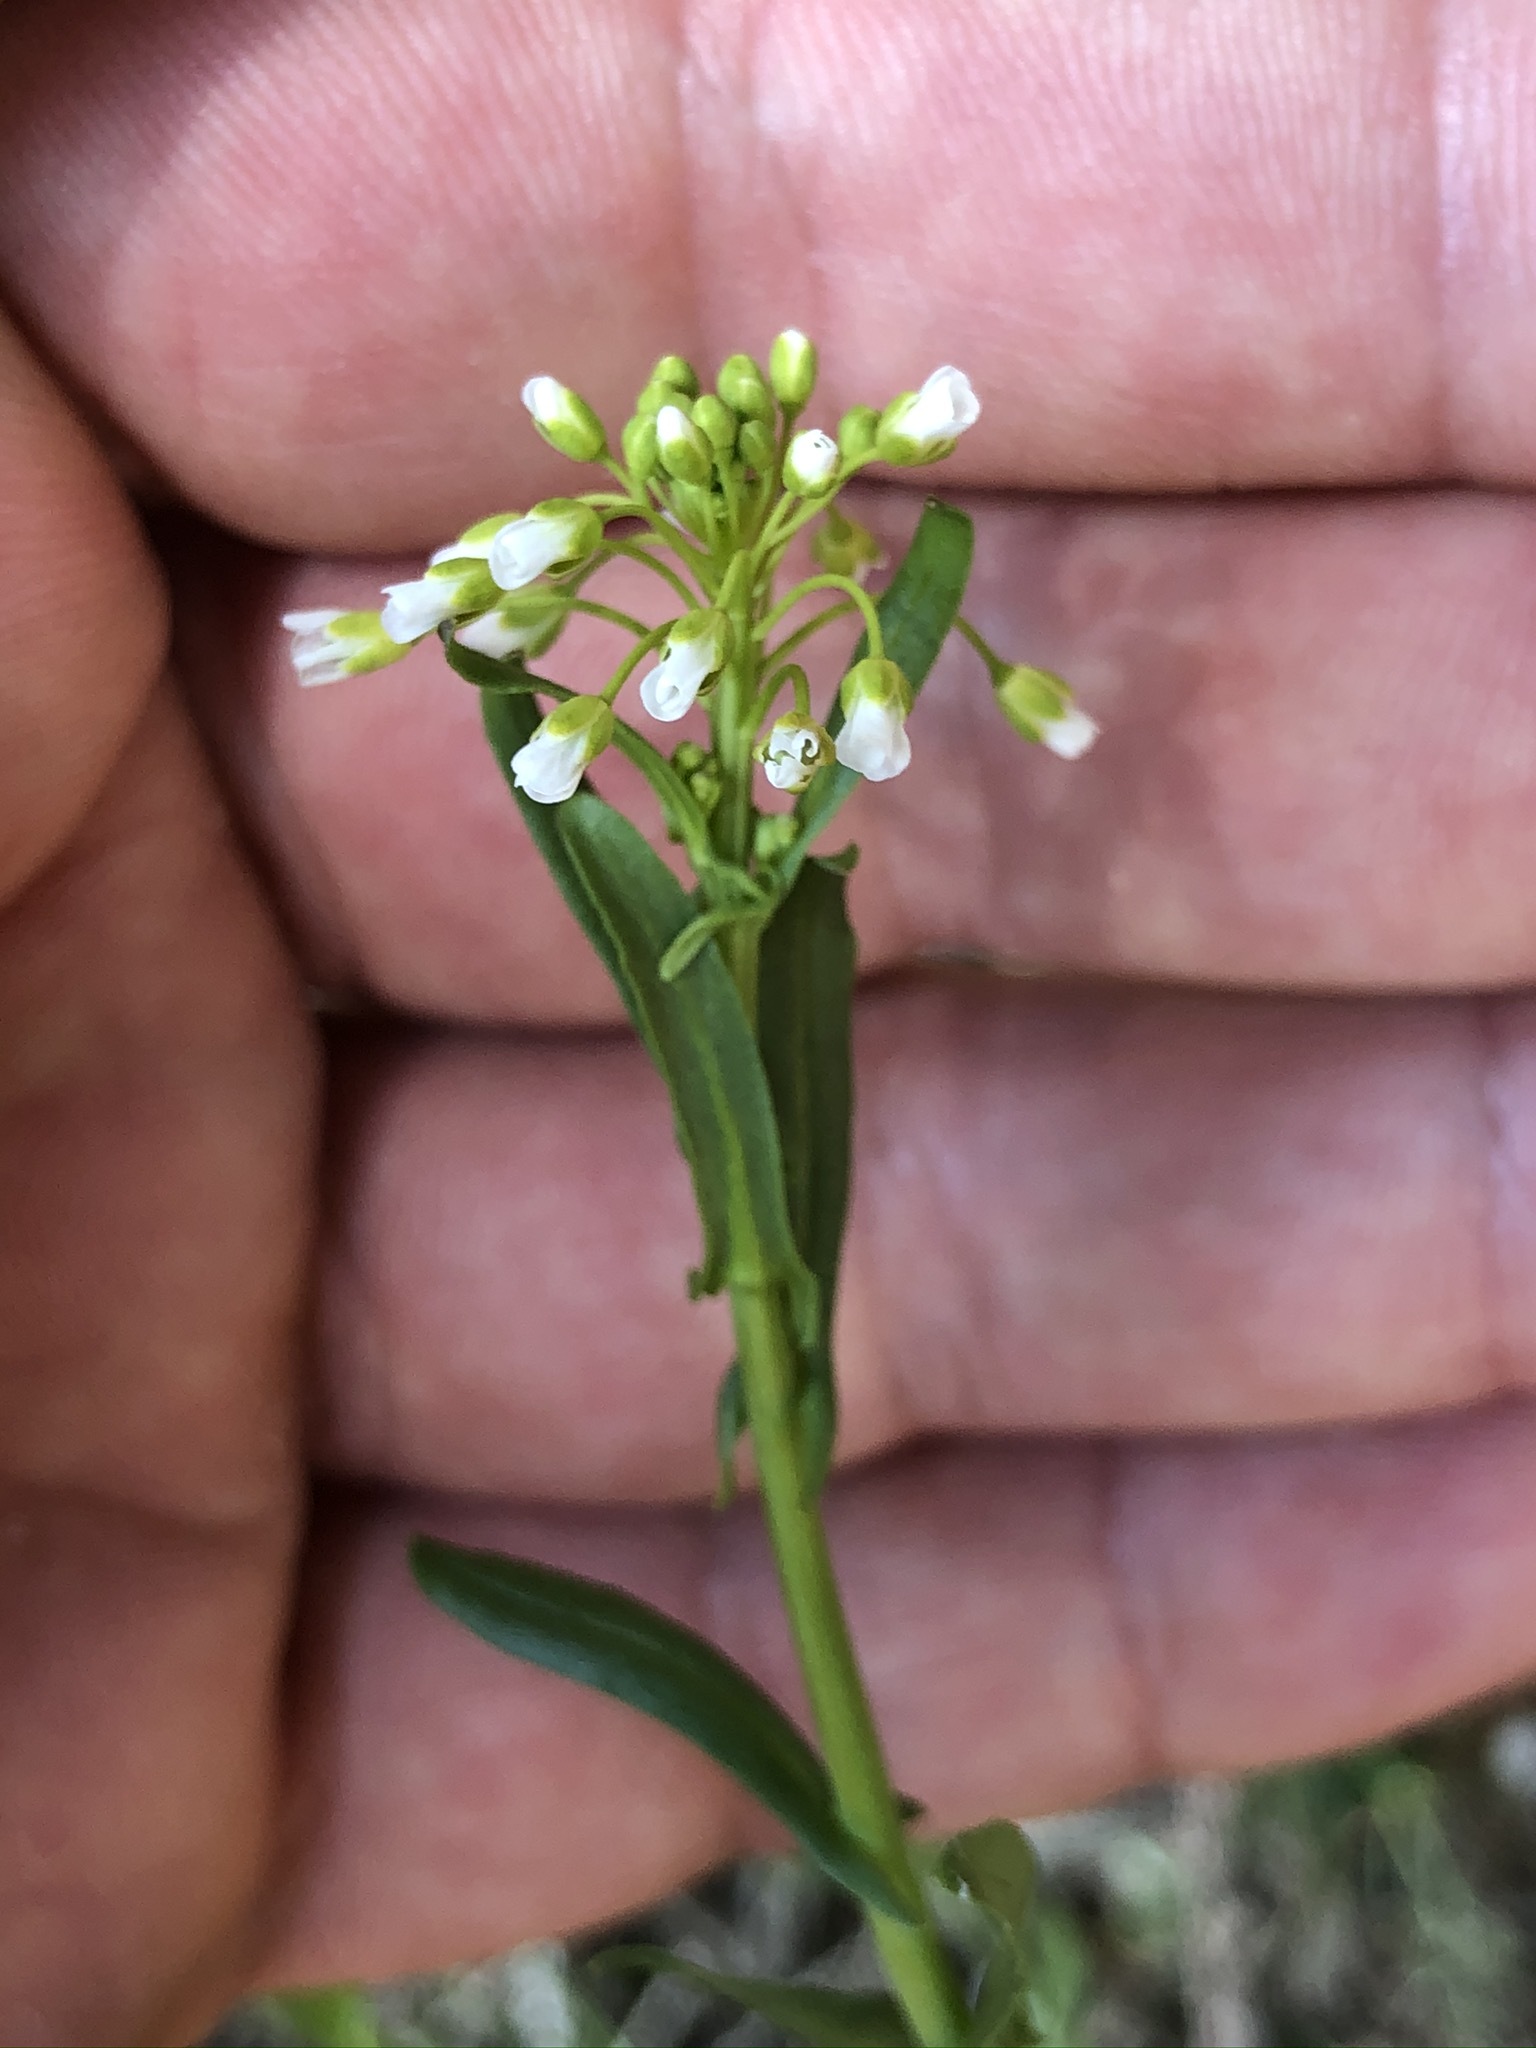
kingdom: Plantae
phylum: Tracheophyta
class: Magnoliopsida
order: Brassicales
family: Brassicaceae
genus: Mummenhoffia
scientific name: Mummenhoffia alliacea
